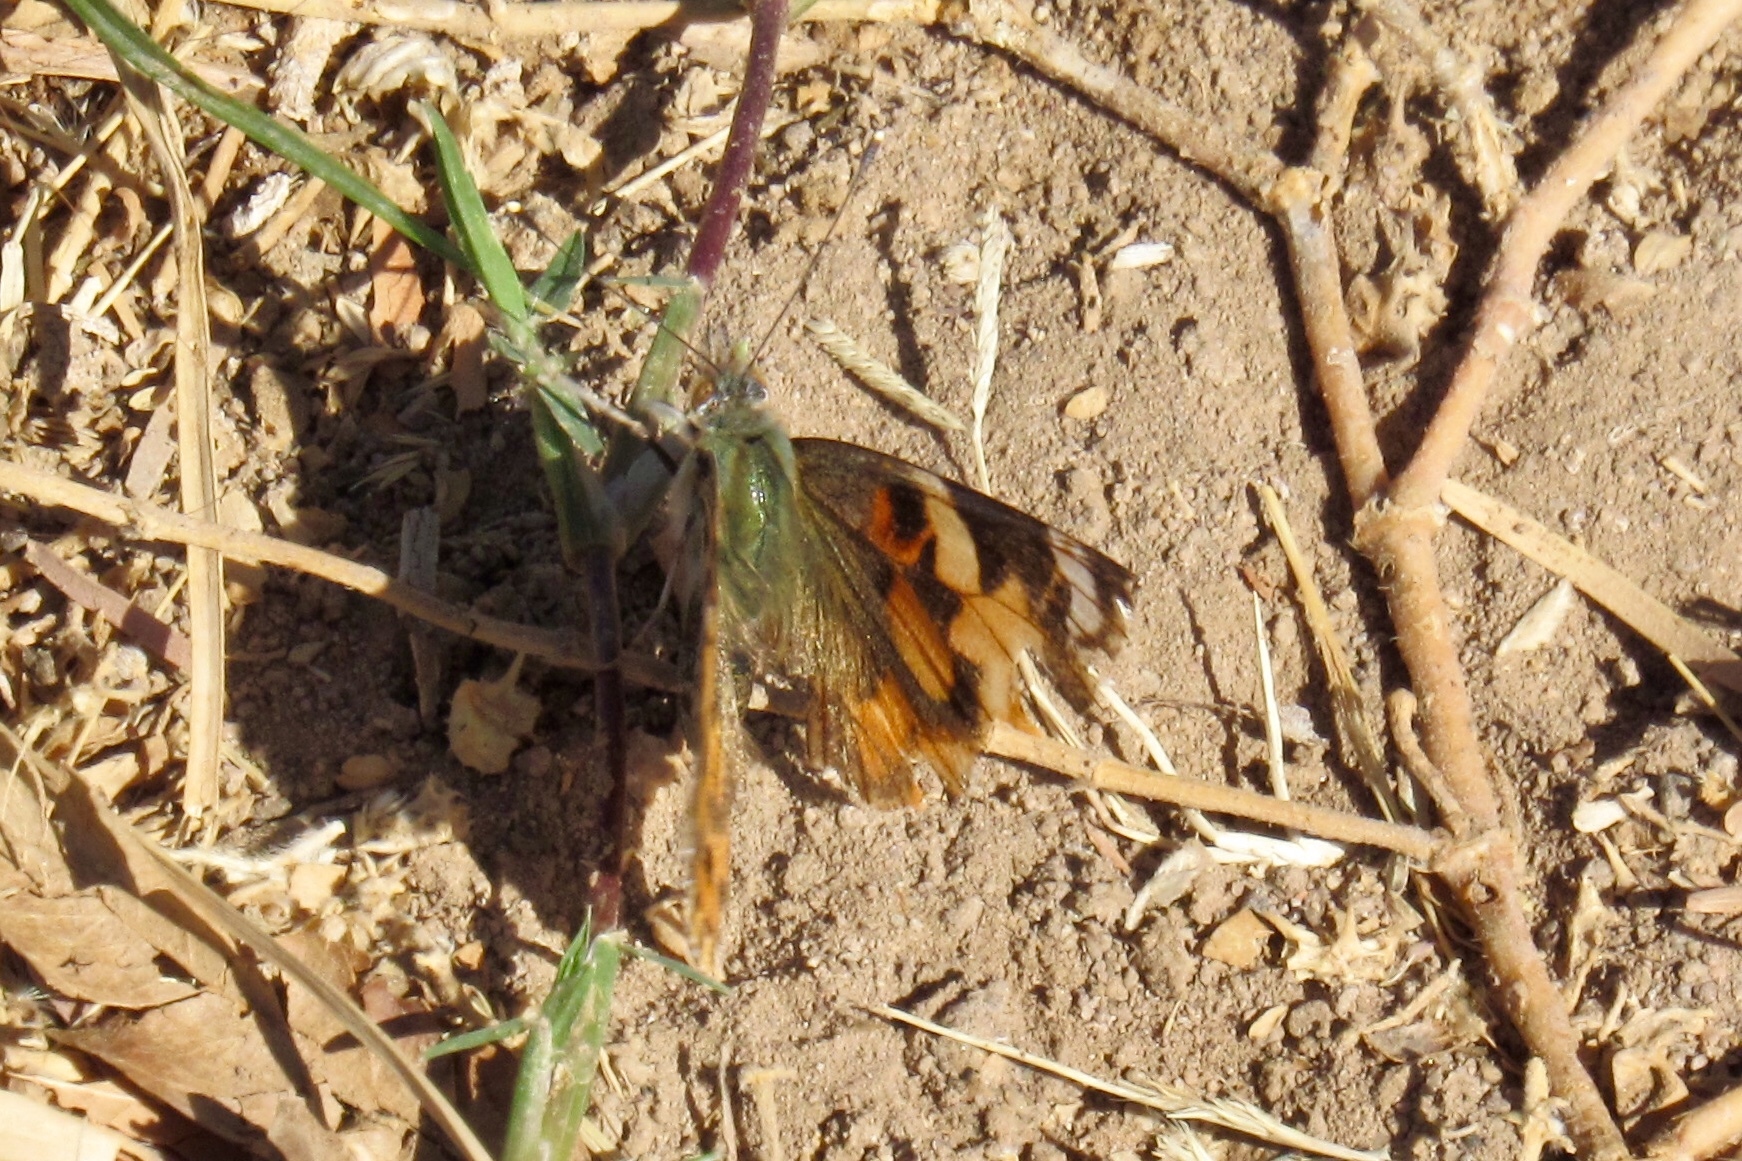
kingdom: Animalia
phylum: Arthropoda
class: Insecta
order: Lepidoptera
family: Nymphalidae
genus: Vanessa
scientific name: Vanessa cardui
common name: Painted lady
